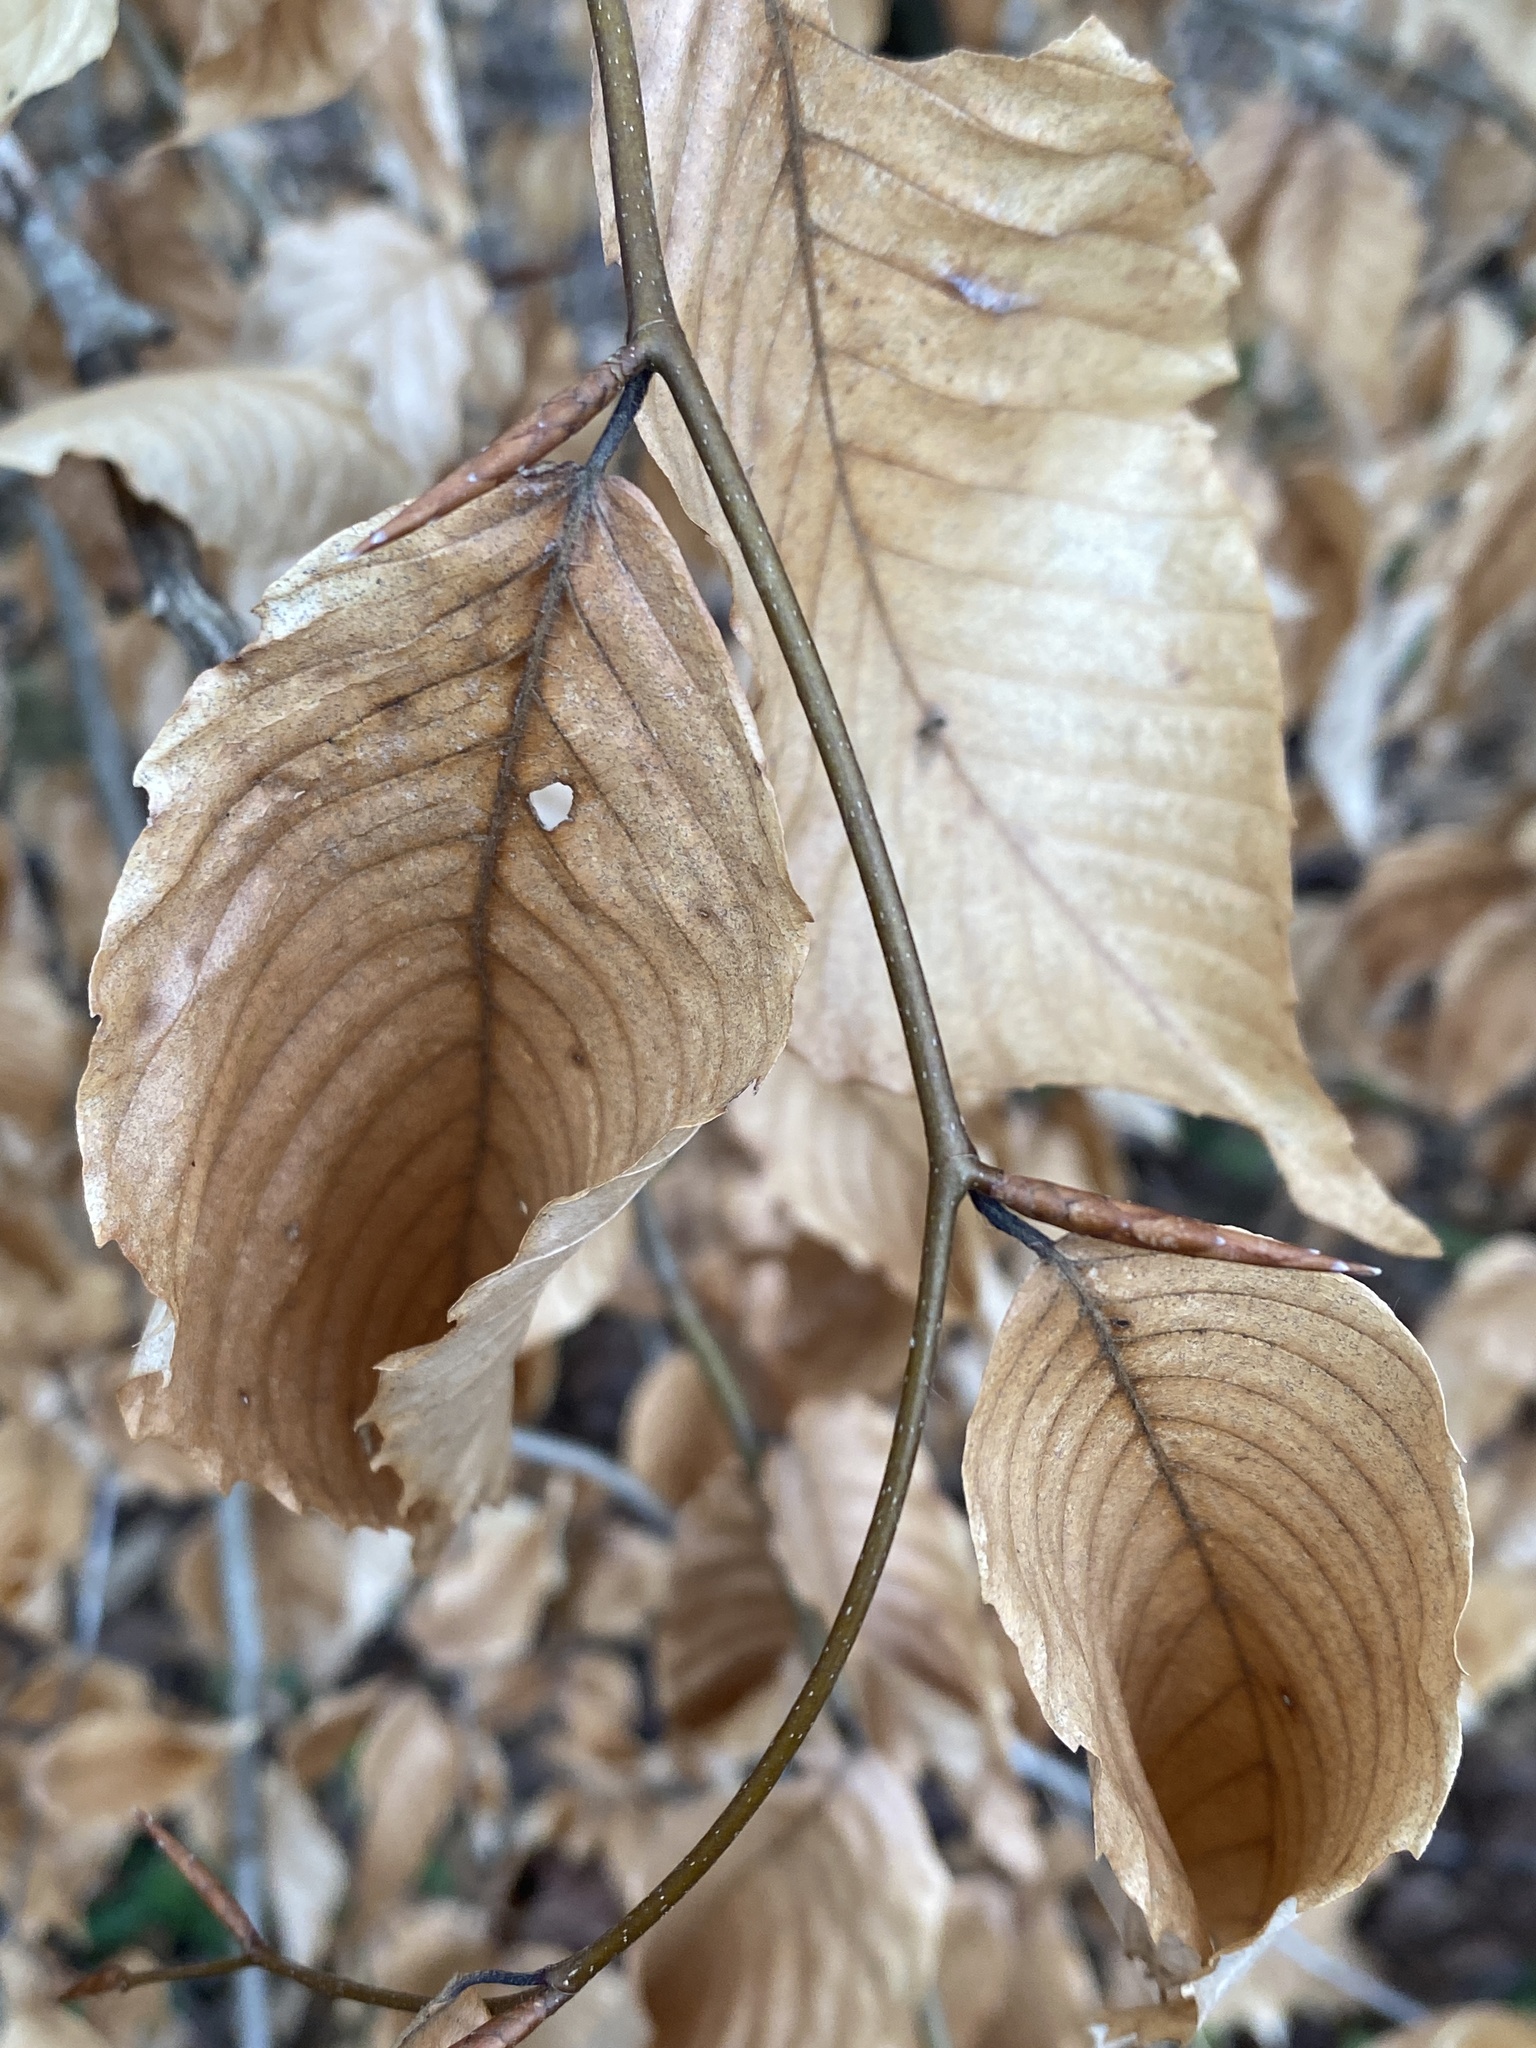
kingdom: Plantae
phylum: Tracheophyta
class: Magnoliopsida
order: Fagales
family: Fagaceae
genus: Fagus
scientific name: Fagus grandifolia
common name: American beech
